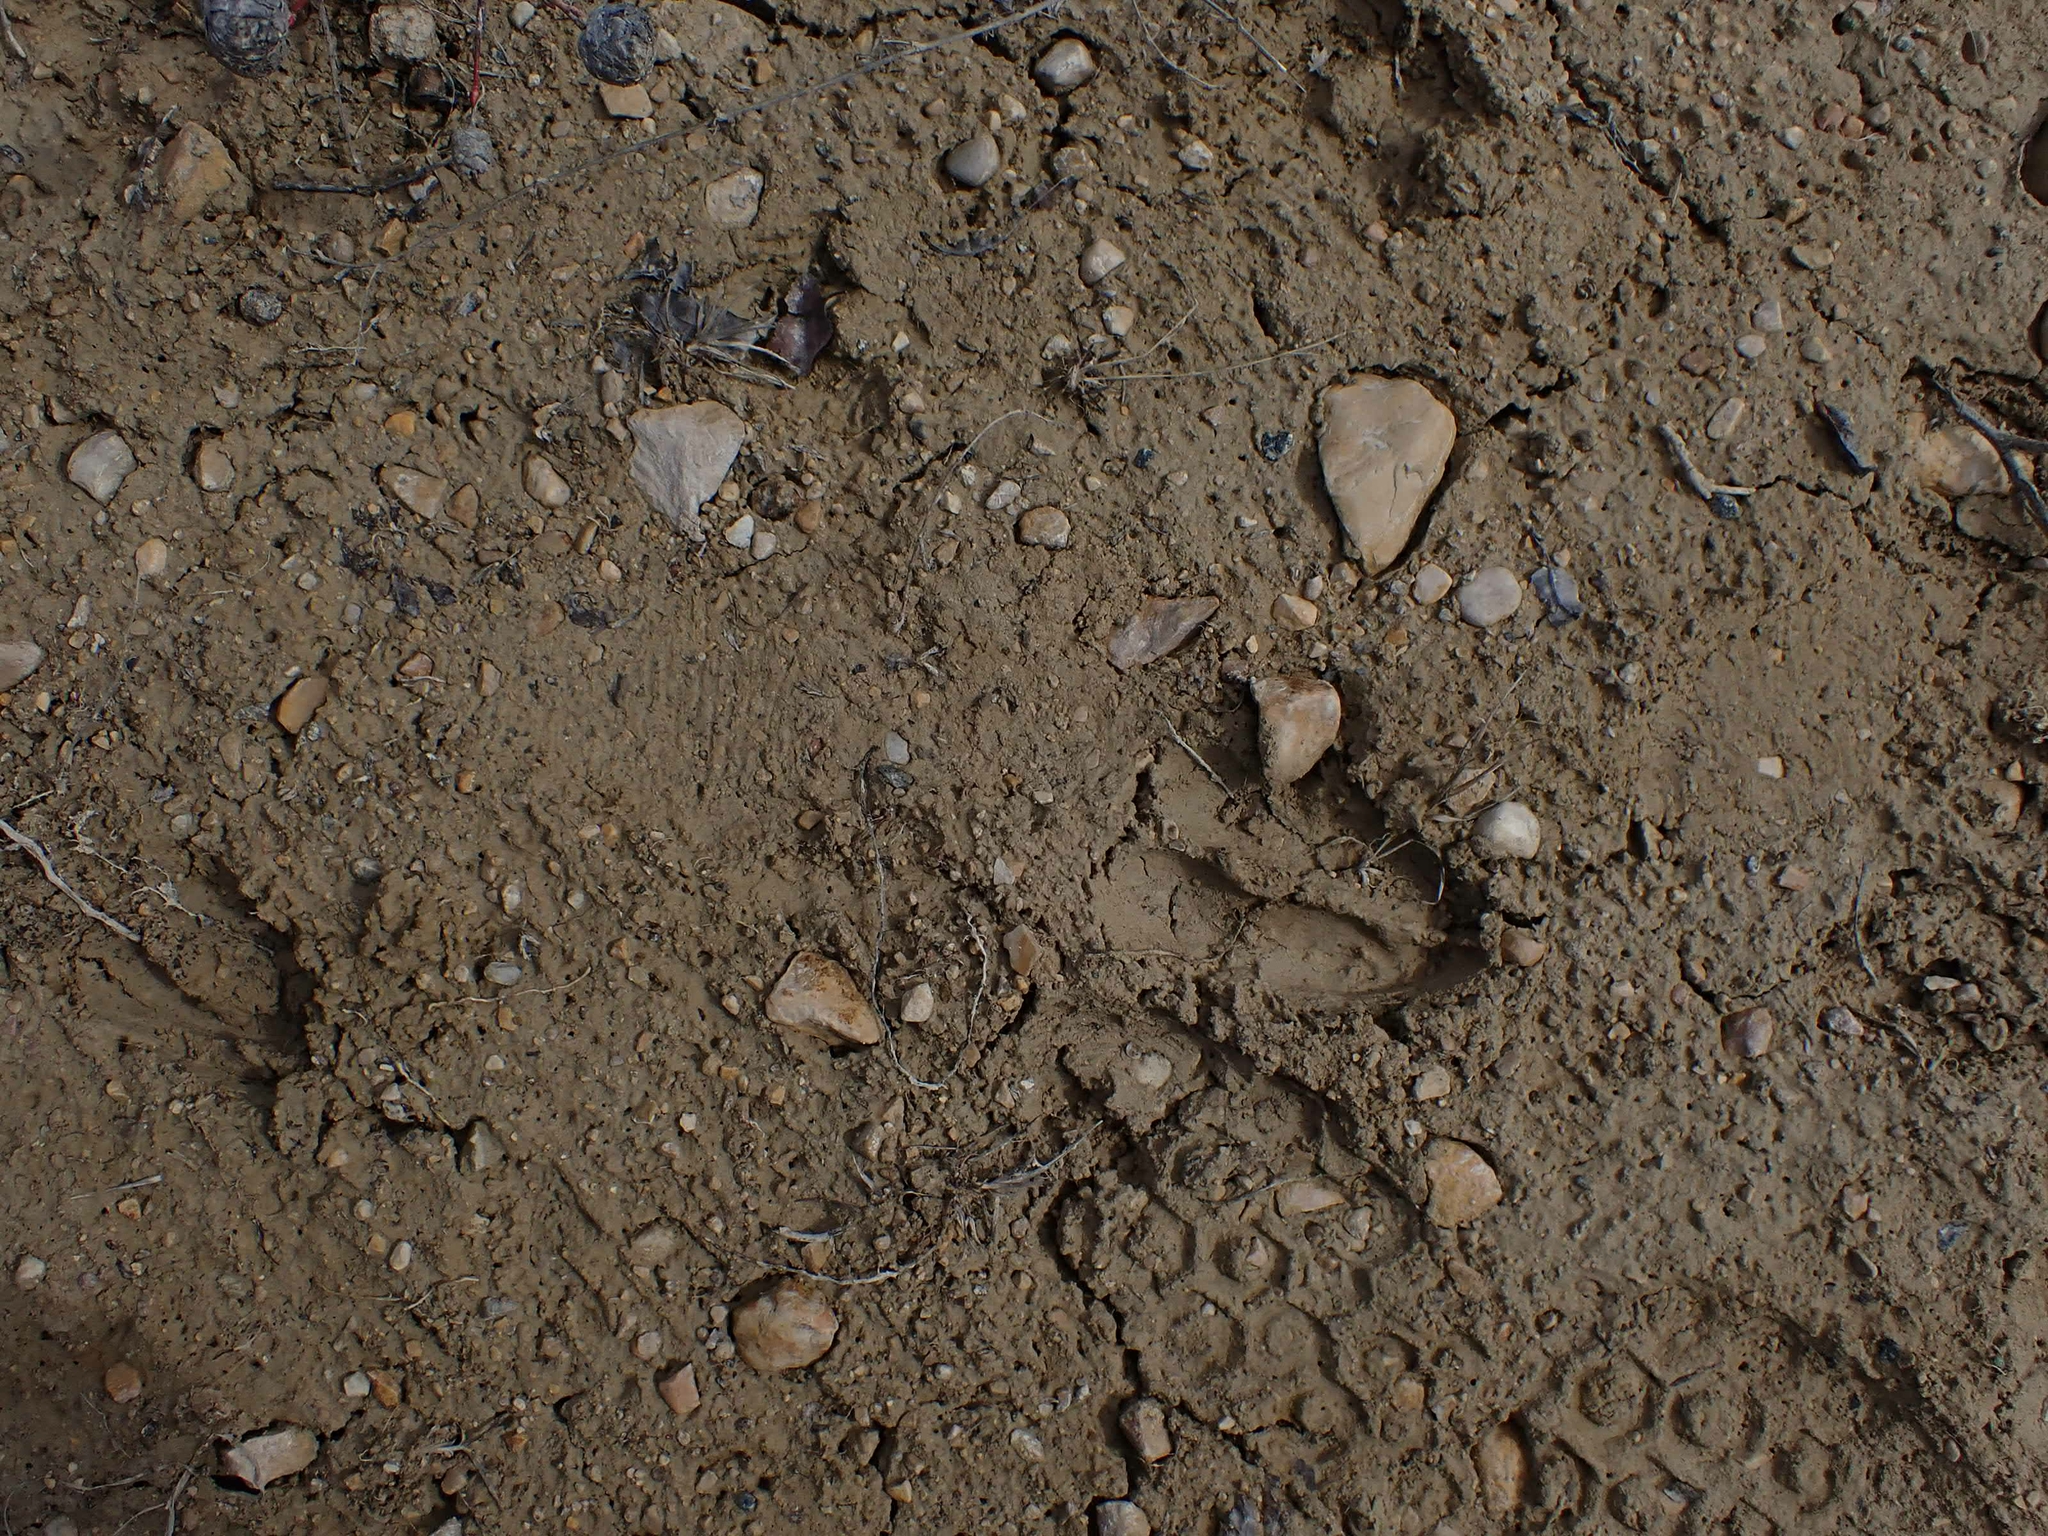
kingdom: Animalia
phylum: Chordata
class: Mammalia
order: Artiodactyla
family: Cervidae
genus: Odocoileus
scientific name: Odocoileus virginianus
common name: White-tailed deer
